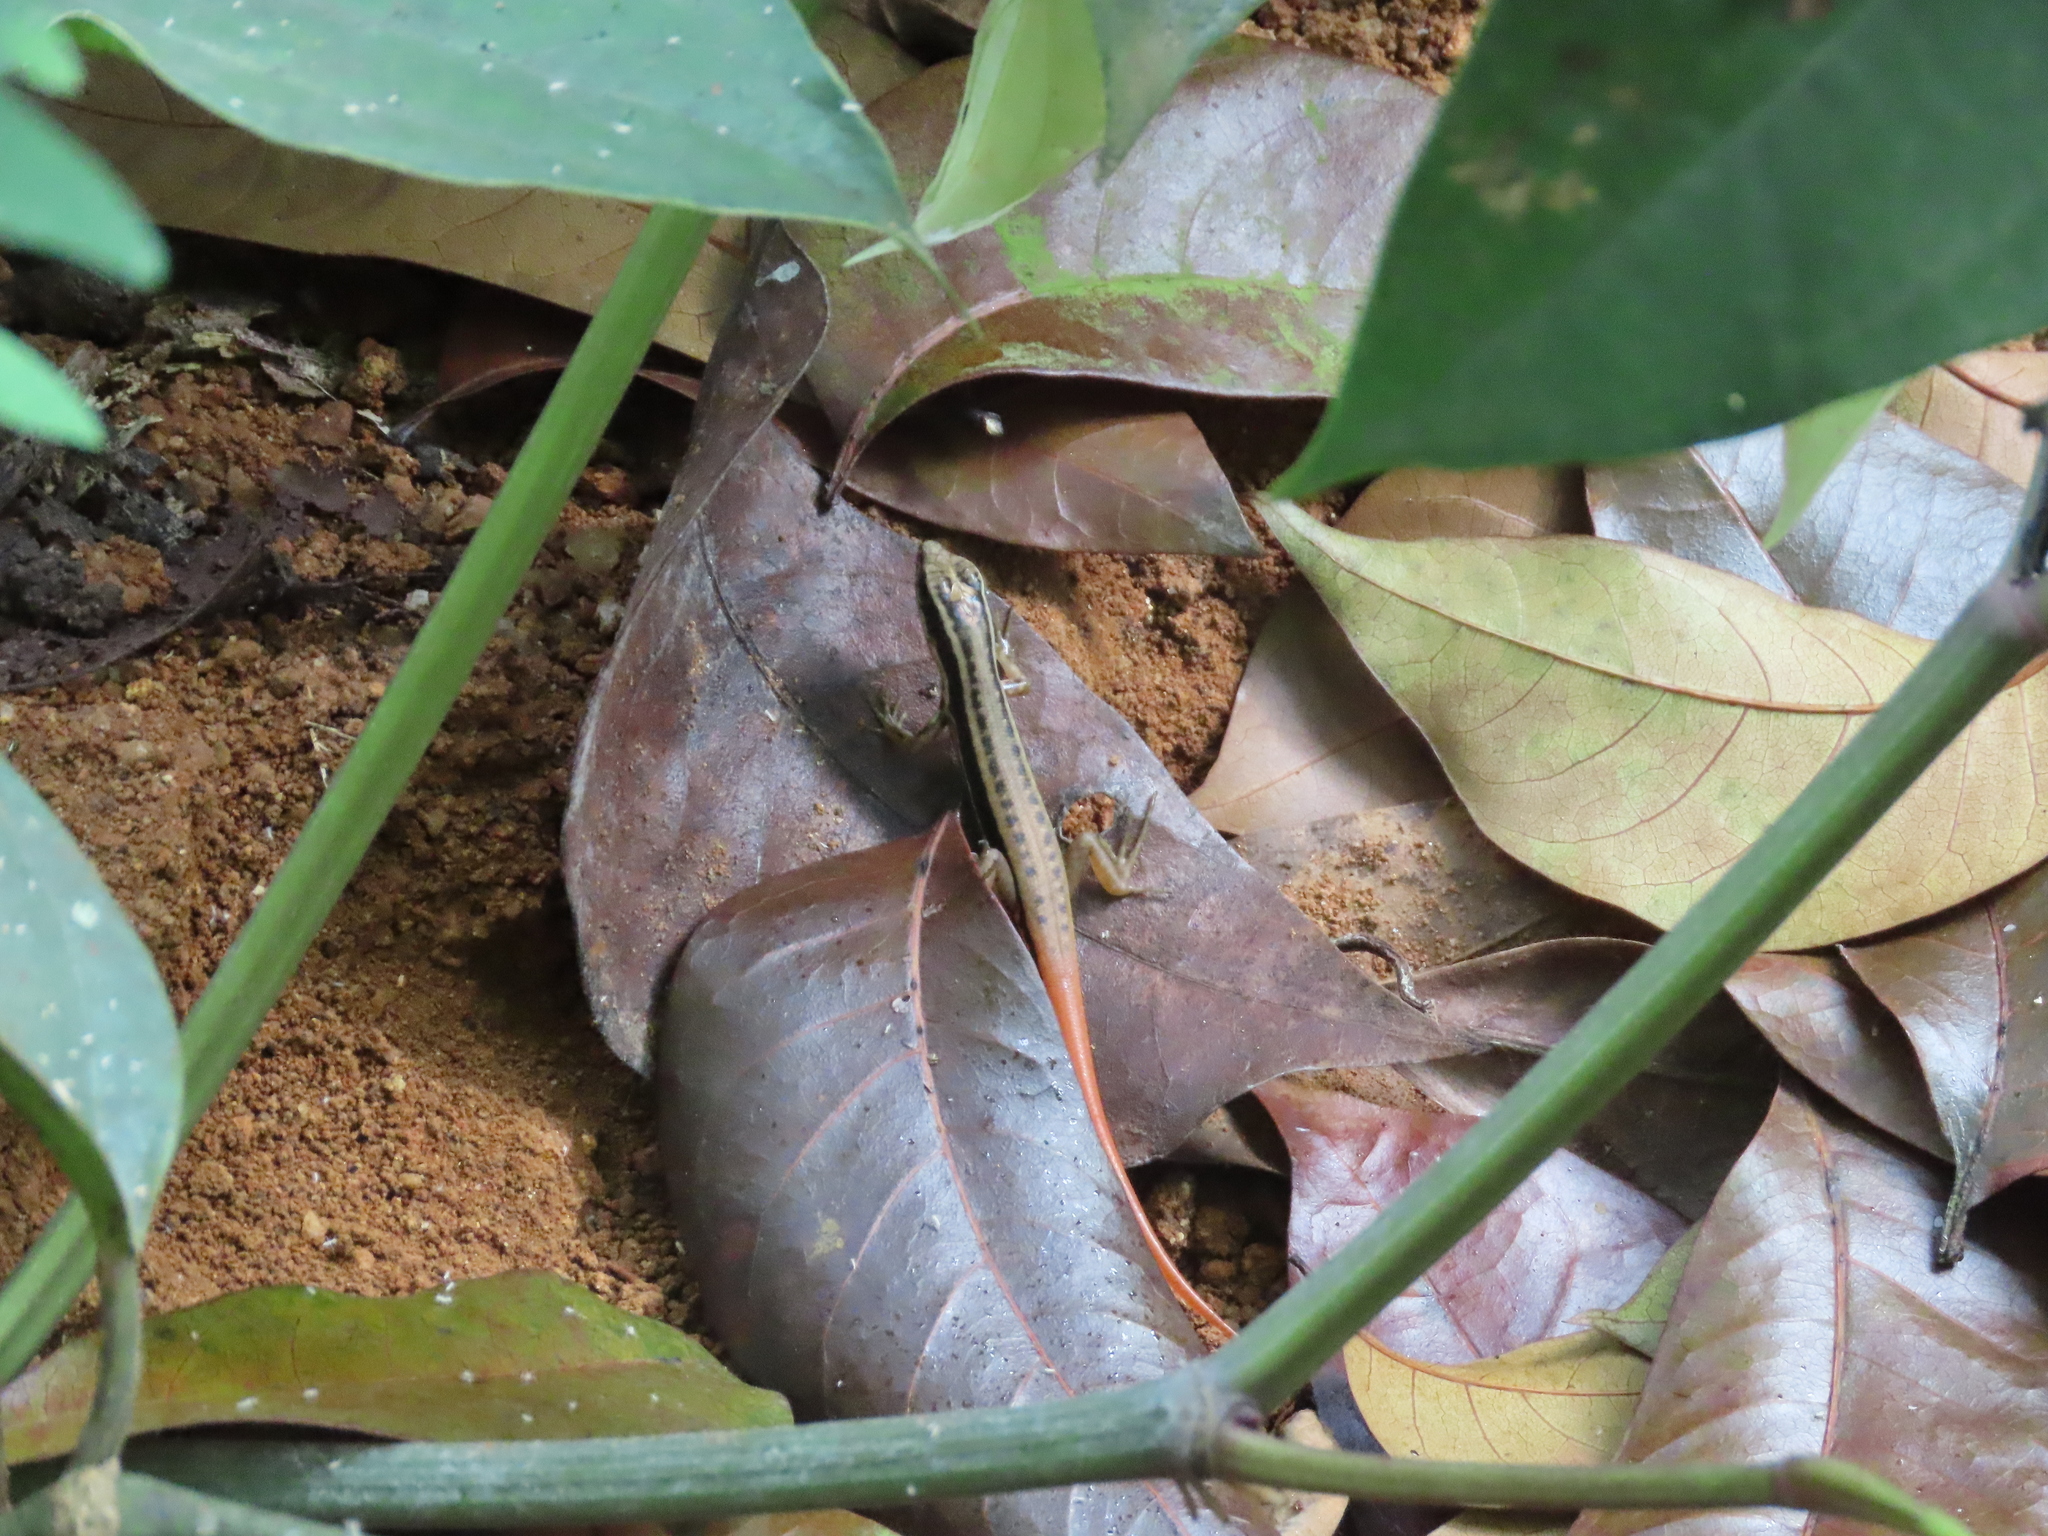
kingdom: Animalia
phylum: Chordata
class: Squamata
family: Scincidae
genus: Sphenomorphus
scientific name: Sphenomorphus dussumieri
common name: Dussumier's forest skink
